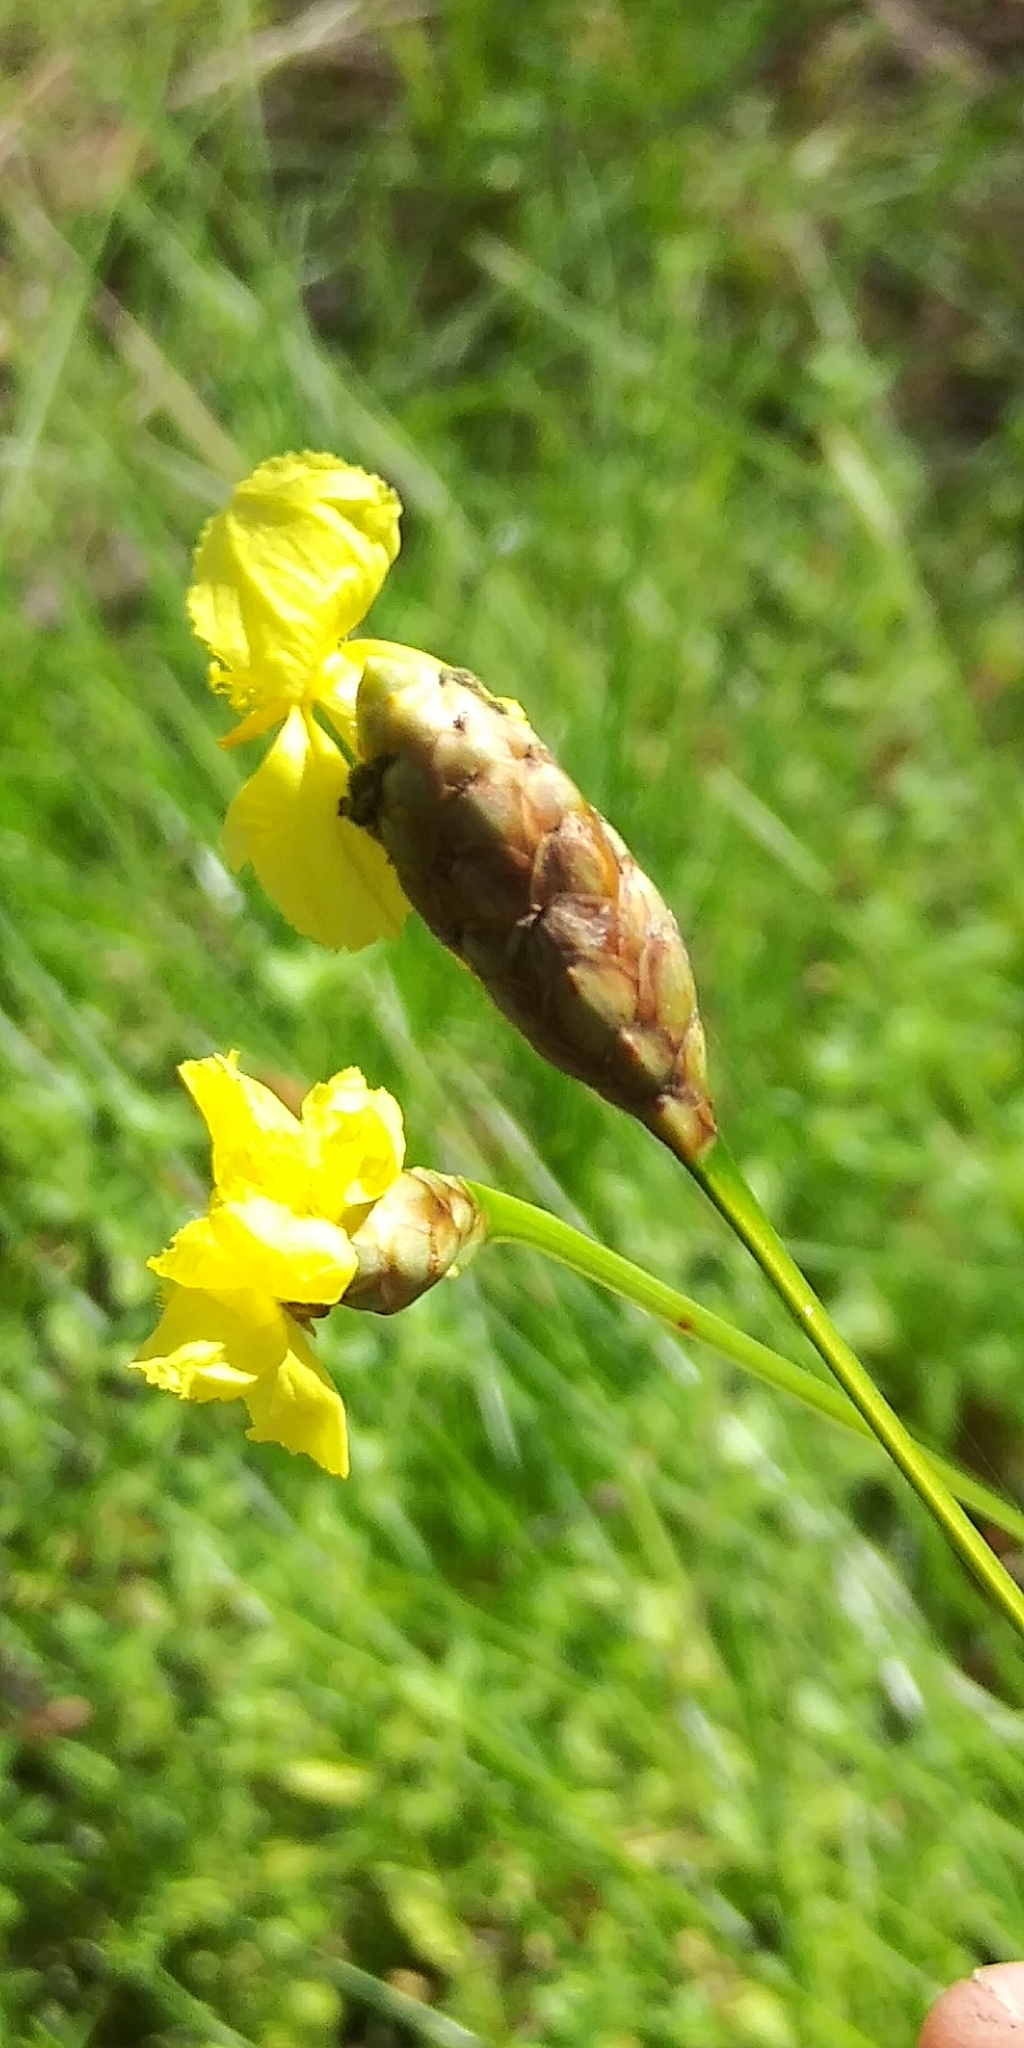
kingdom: Plantae
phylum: Tracheophyta
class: Liliopsida
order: Poales
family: Xyridaceae
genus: Xyris
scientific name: Xyris ambigua
